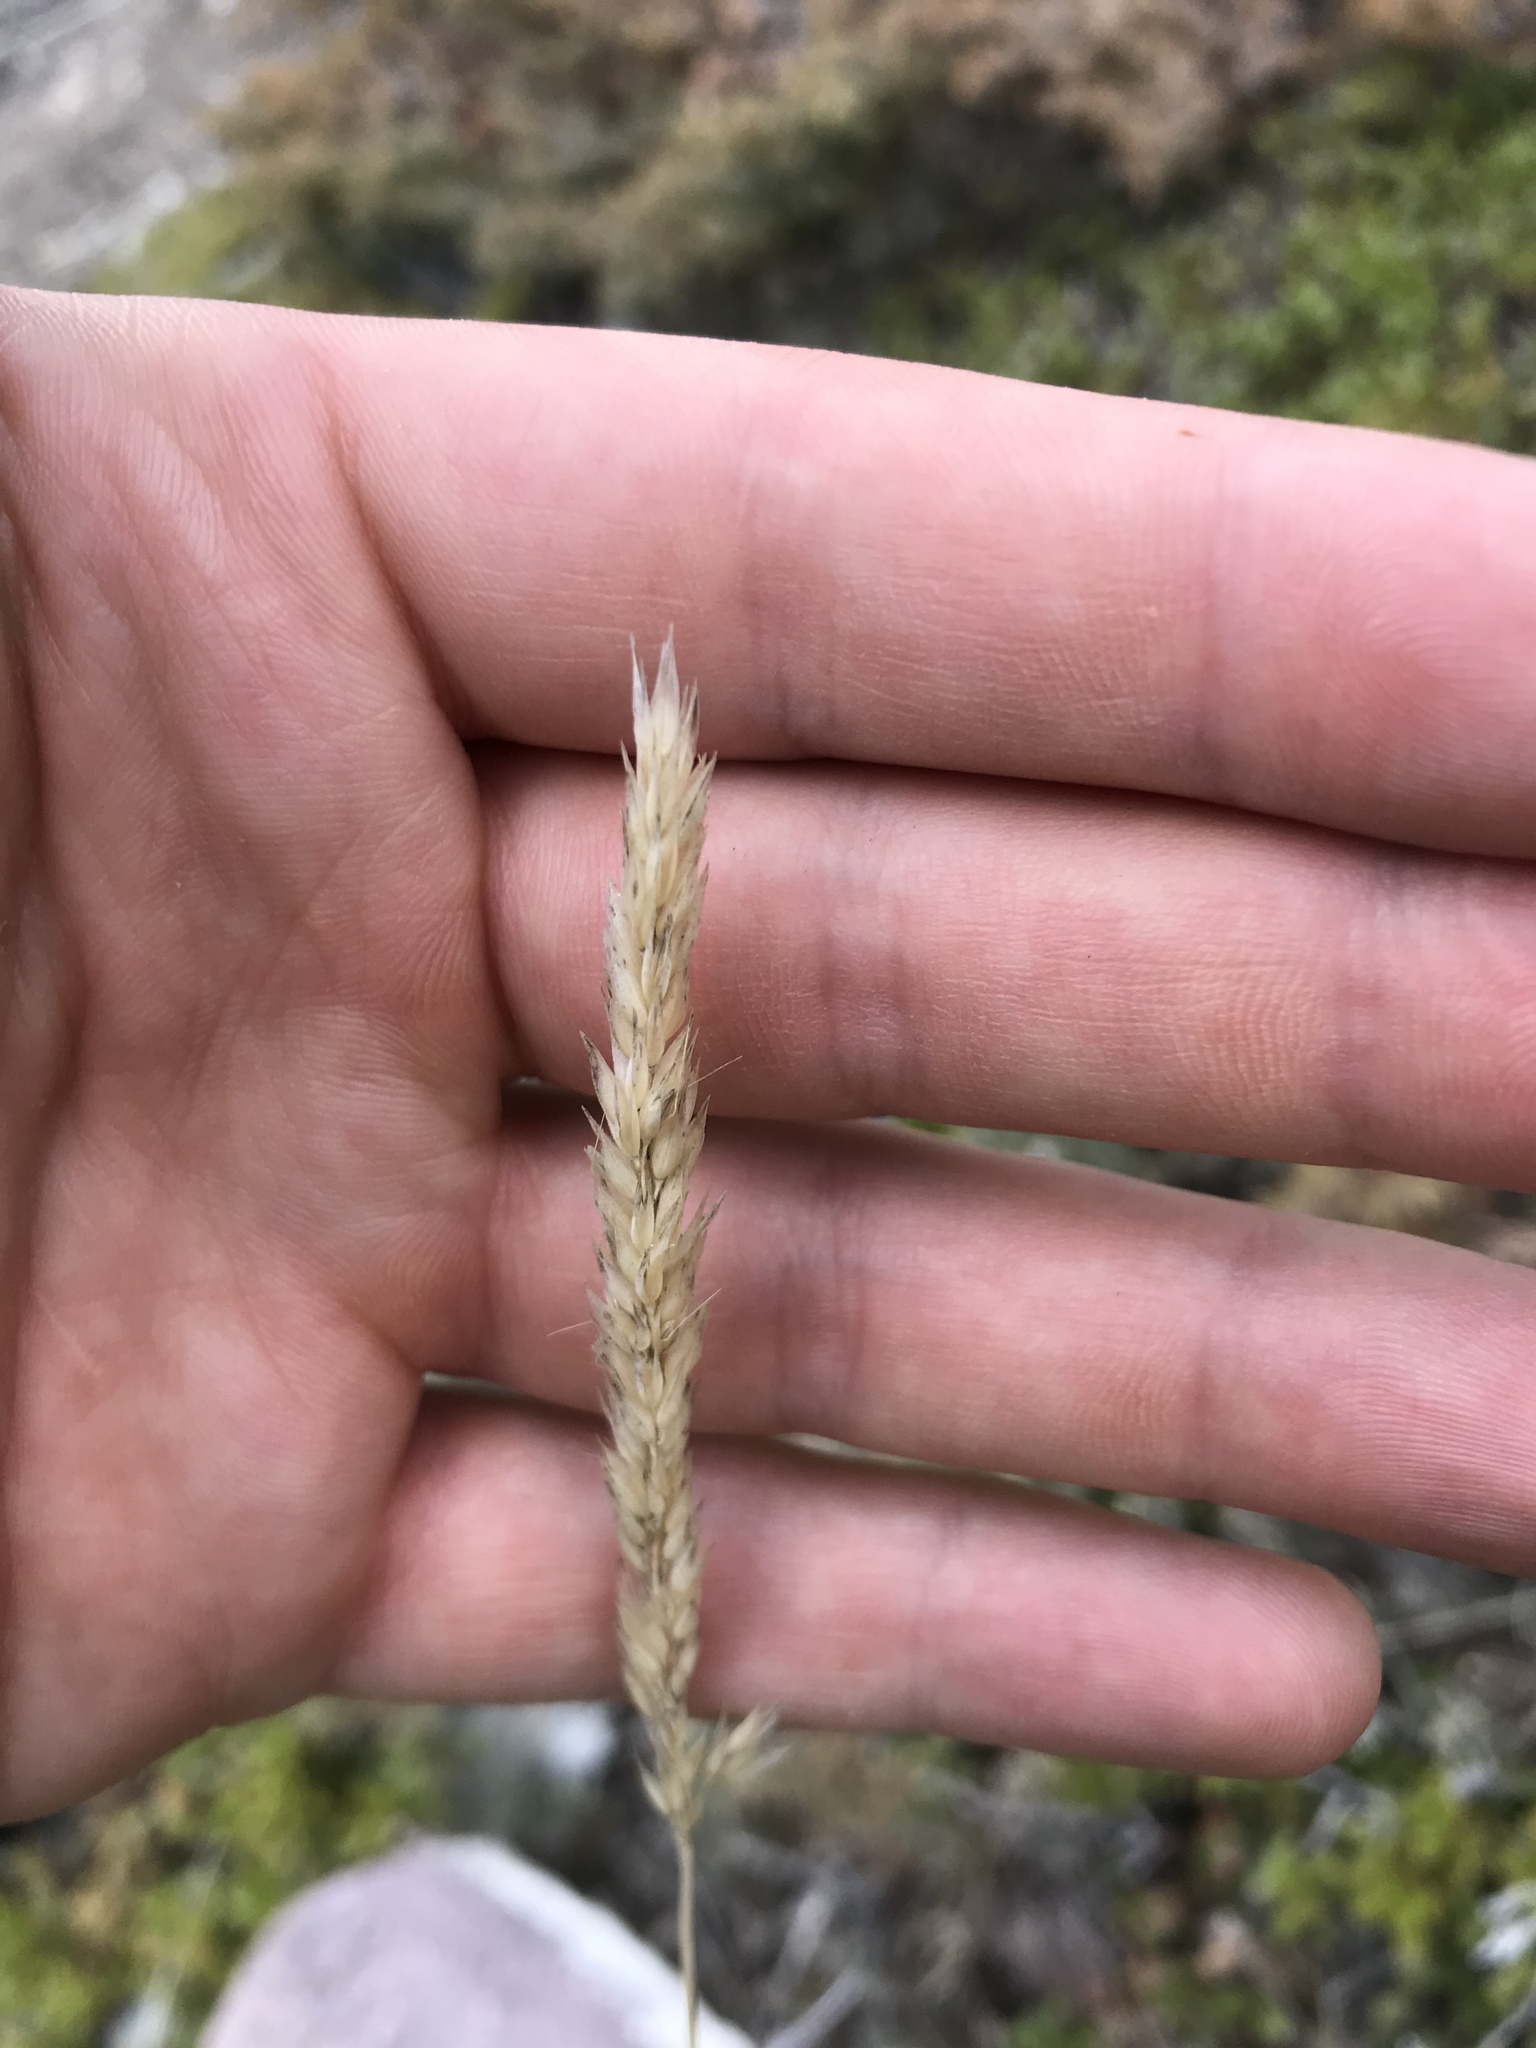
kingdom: Plantae
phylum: Tracheophyta
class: Liliopsida
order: Poales
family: Poaceae
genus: Koeleria
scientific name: Koeleria spicata
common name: Mountain trisetum
